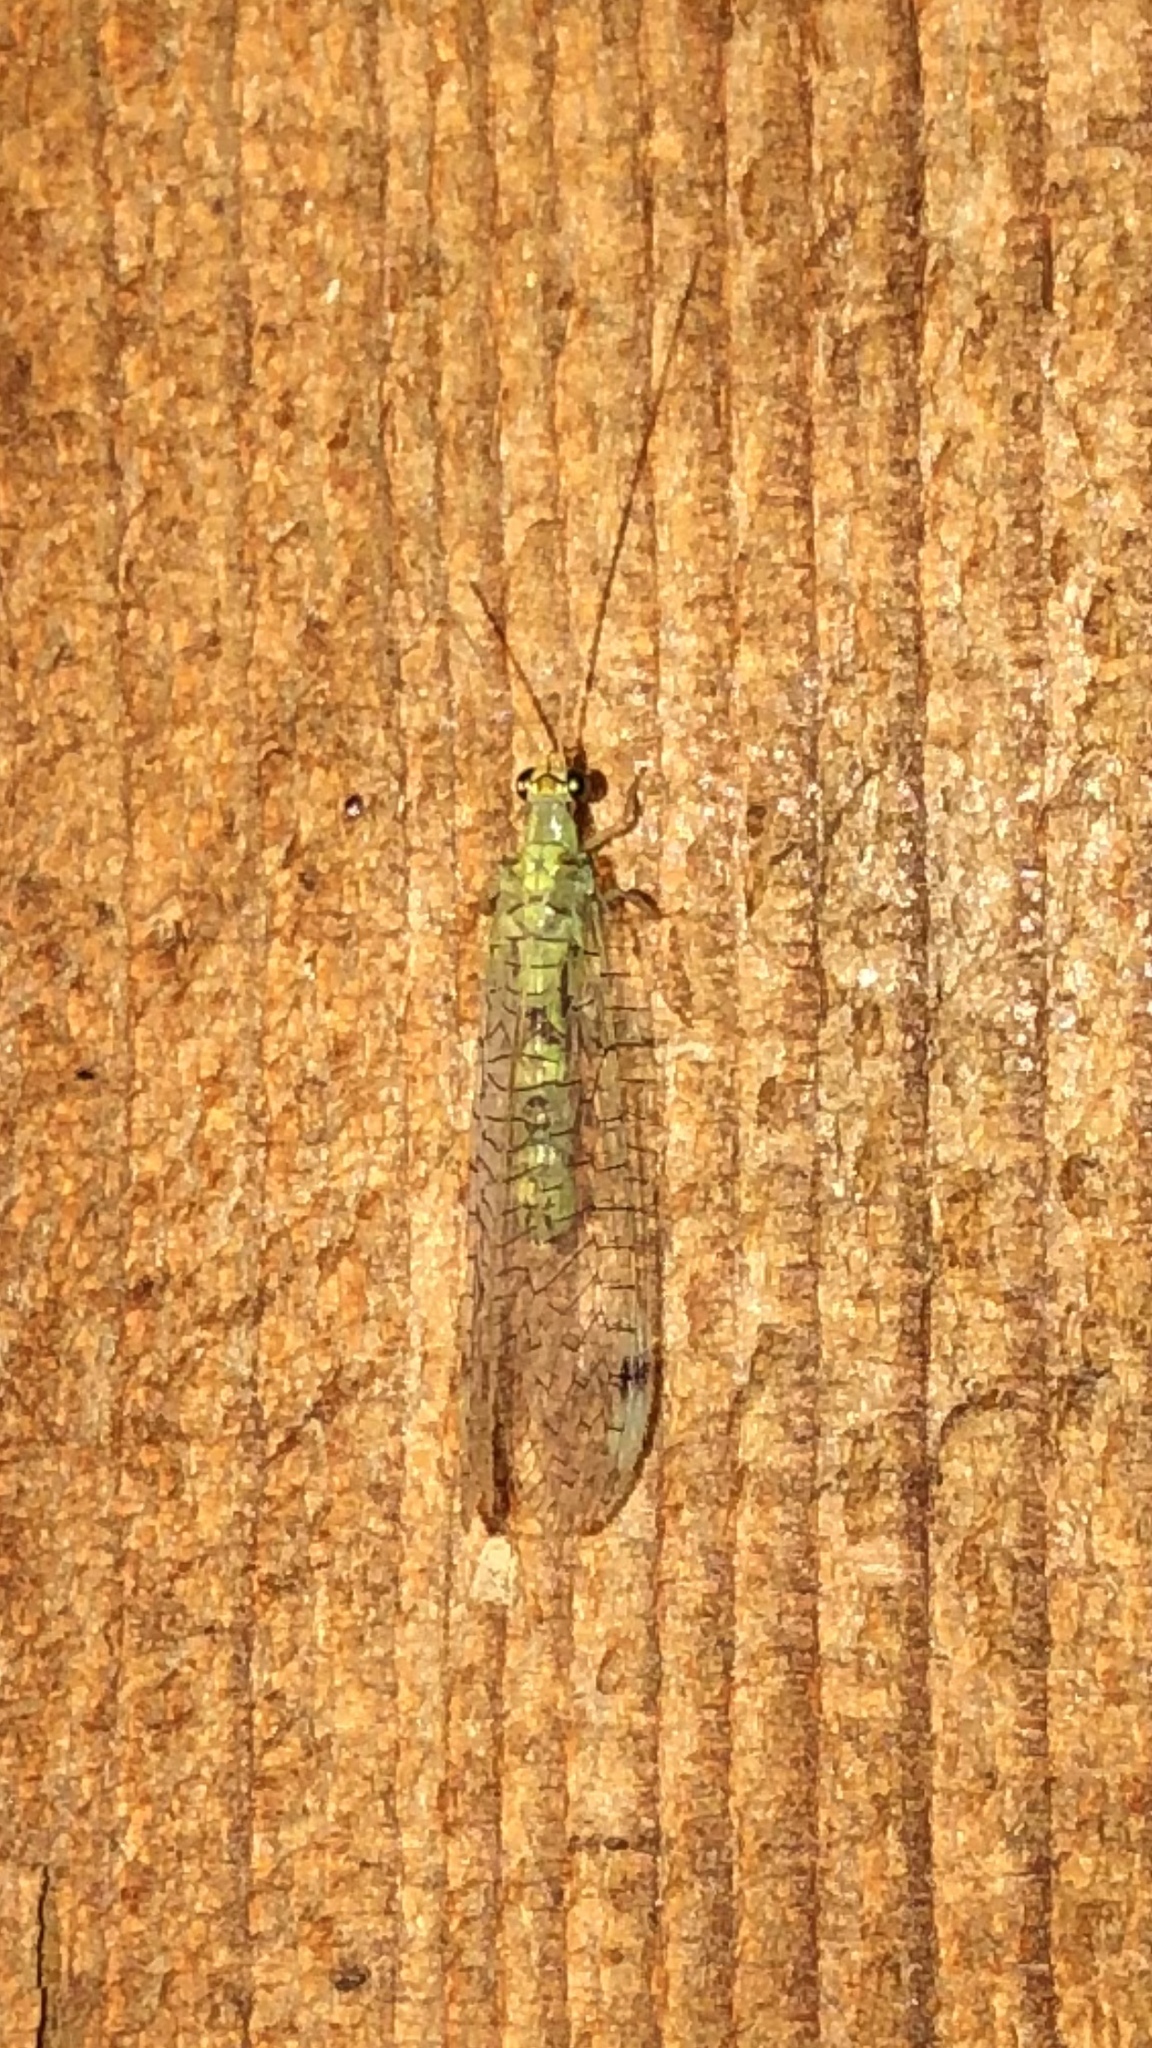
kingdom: Animalia
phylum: Arthropoda
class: Insecta
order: Neuroptera
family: Chrysopidae
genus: Leucochrysa
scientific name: Leucochrysa americana
